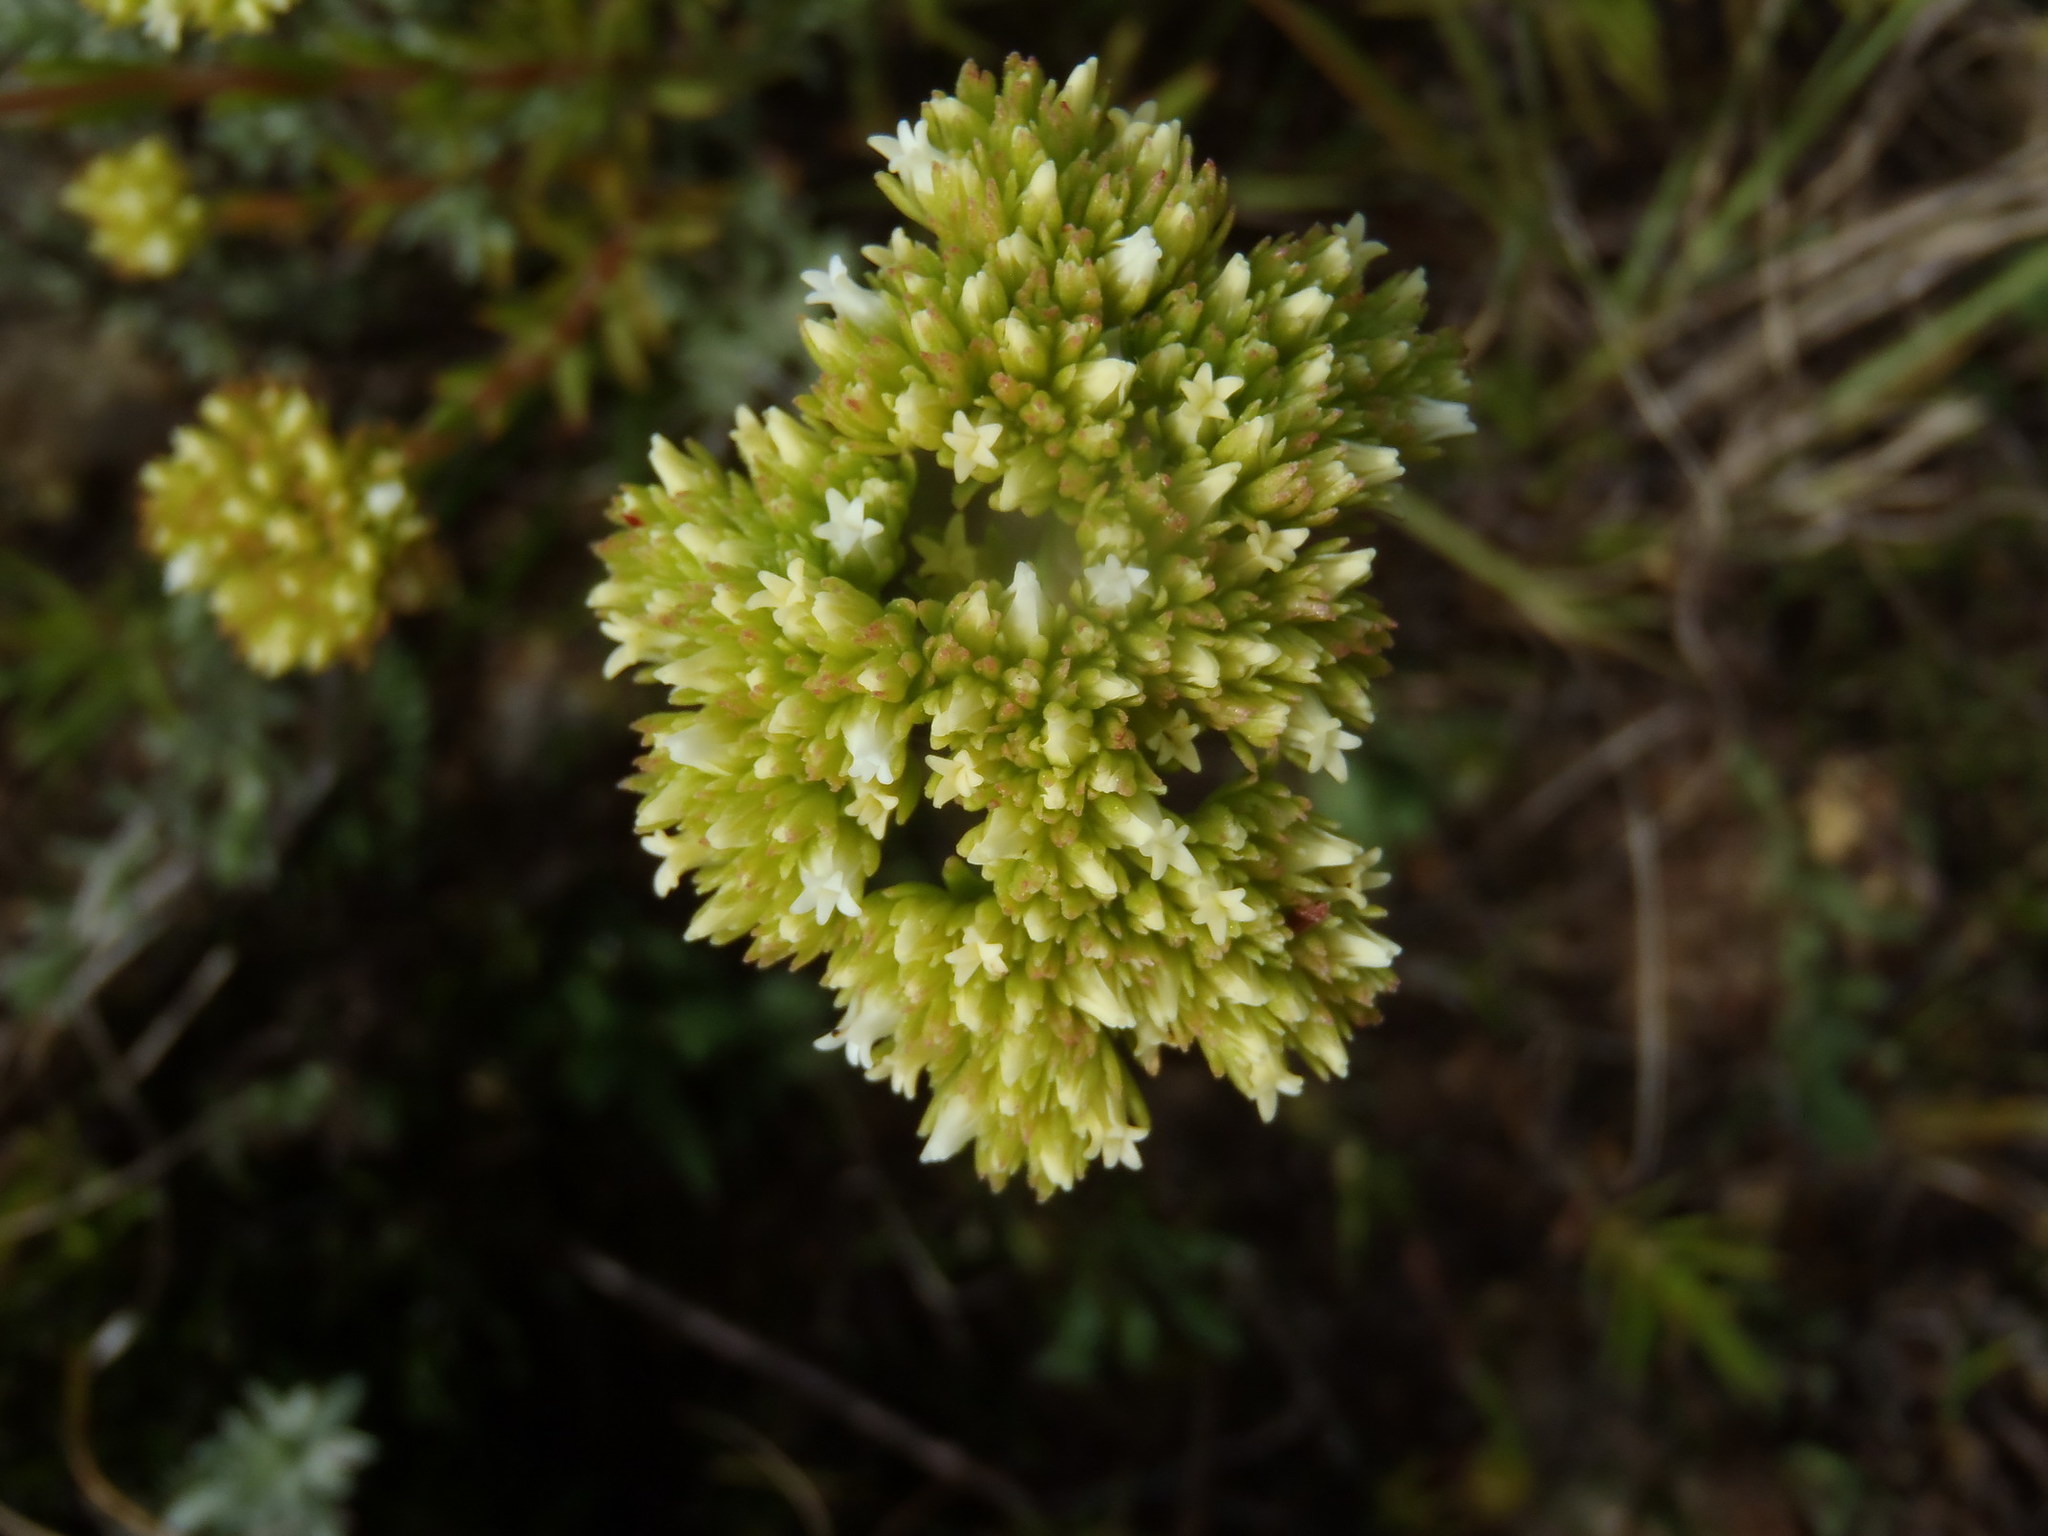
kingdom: Plantae
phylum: Tracheophyta
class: Magnoliopsida
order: Saxifragales
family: Crassulaceae
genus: Crassula
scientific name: Crassula subulata
